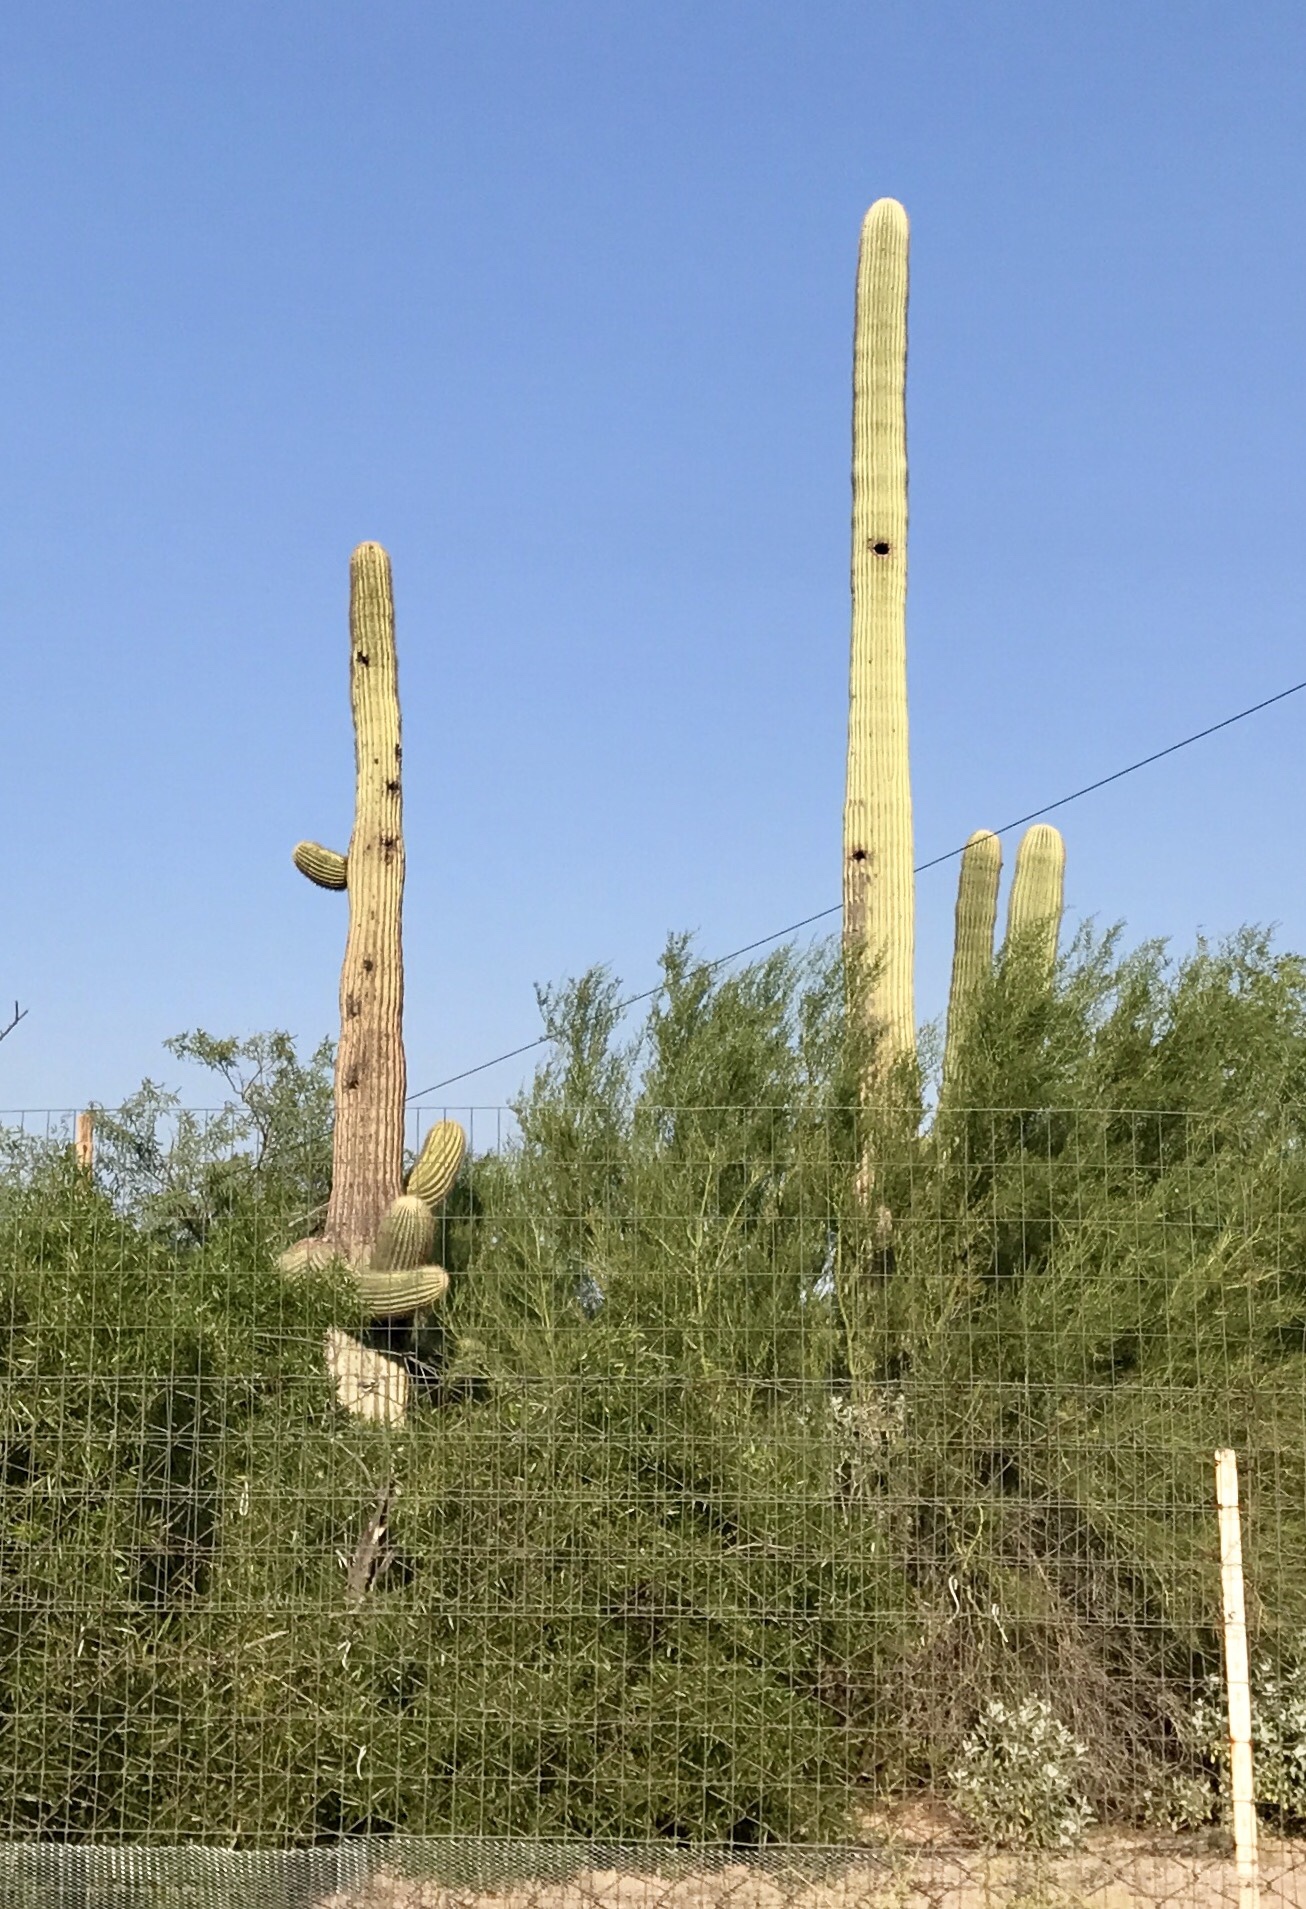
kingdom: Plantae
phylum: Tracheophyta
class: Magnoliopsida
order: Caryophyllales
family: Cactaceae
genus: Carnegiea
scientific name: Carnegiea gigantea
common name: Saguaro
